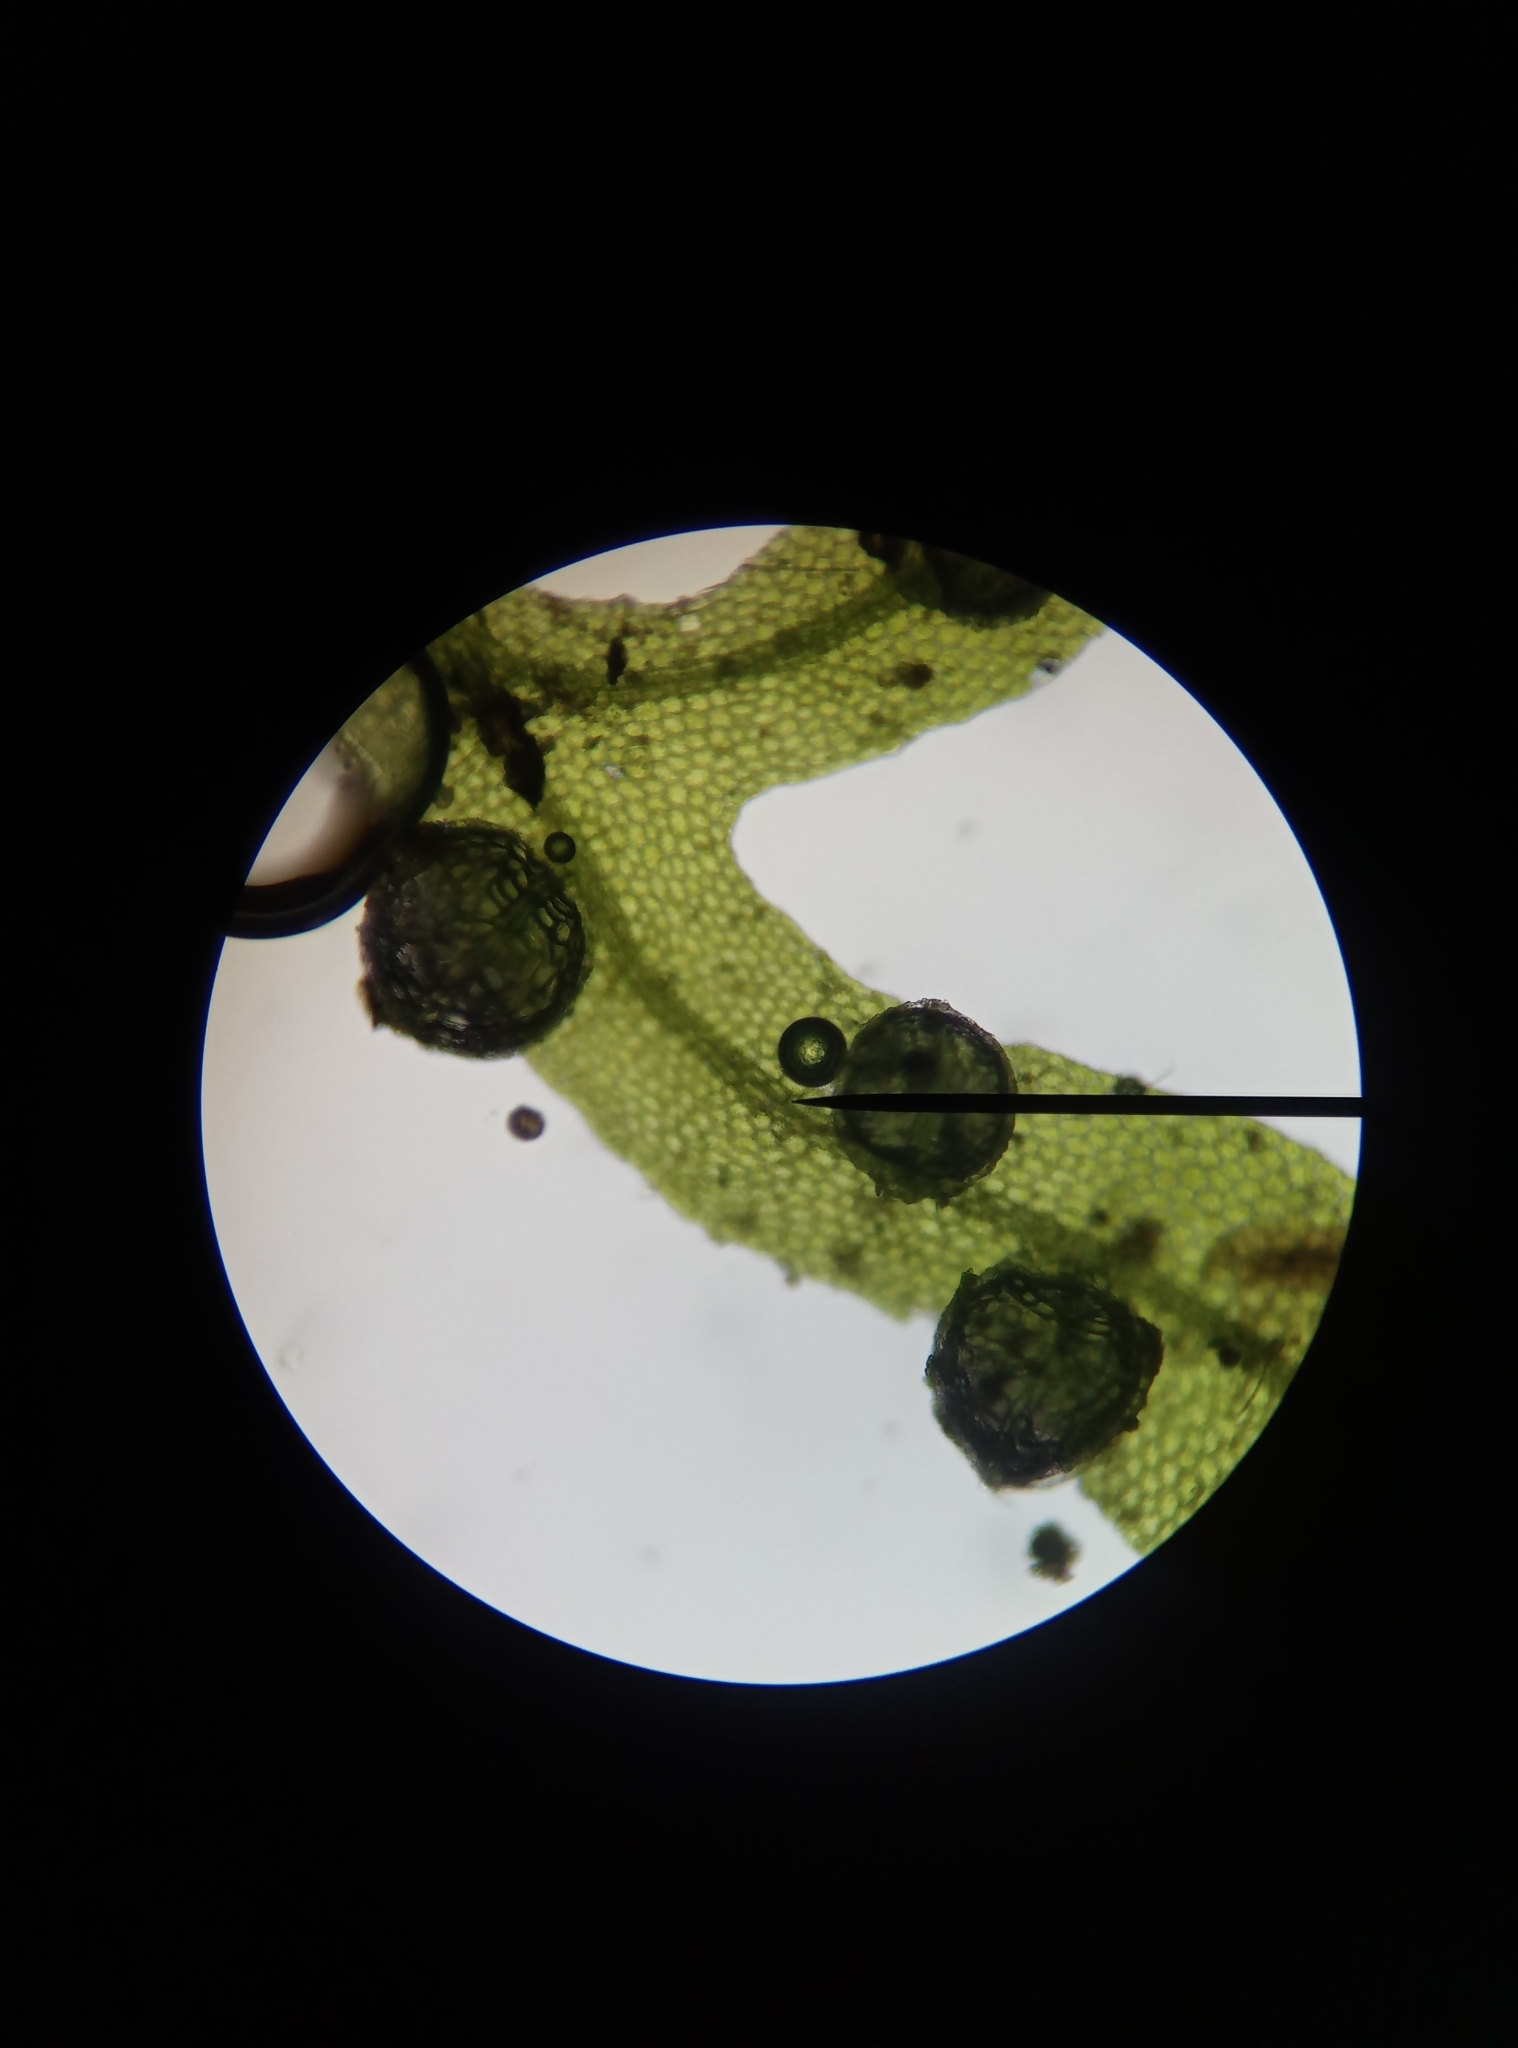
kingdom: Plantae
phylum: Marchantiophyta
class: Jungermanniopsida
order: Metzgeriales
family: Metzgeriaceae
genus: Metzgeria
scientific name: Metzgeria furcata
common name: Forked veilwort
